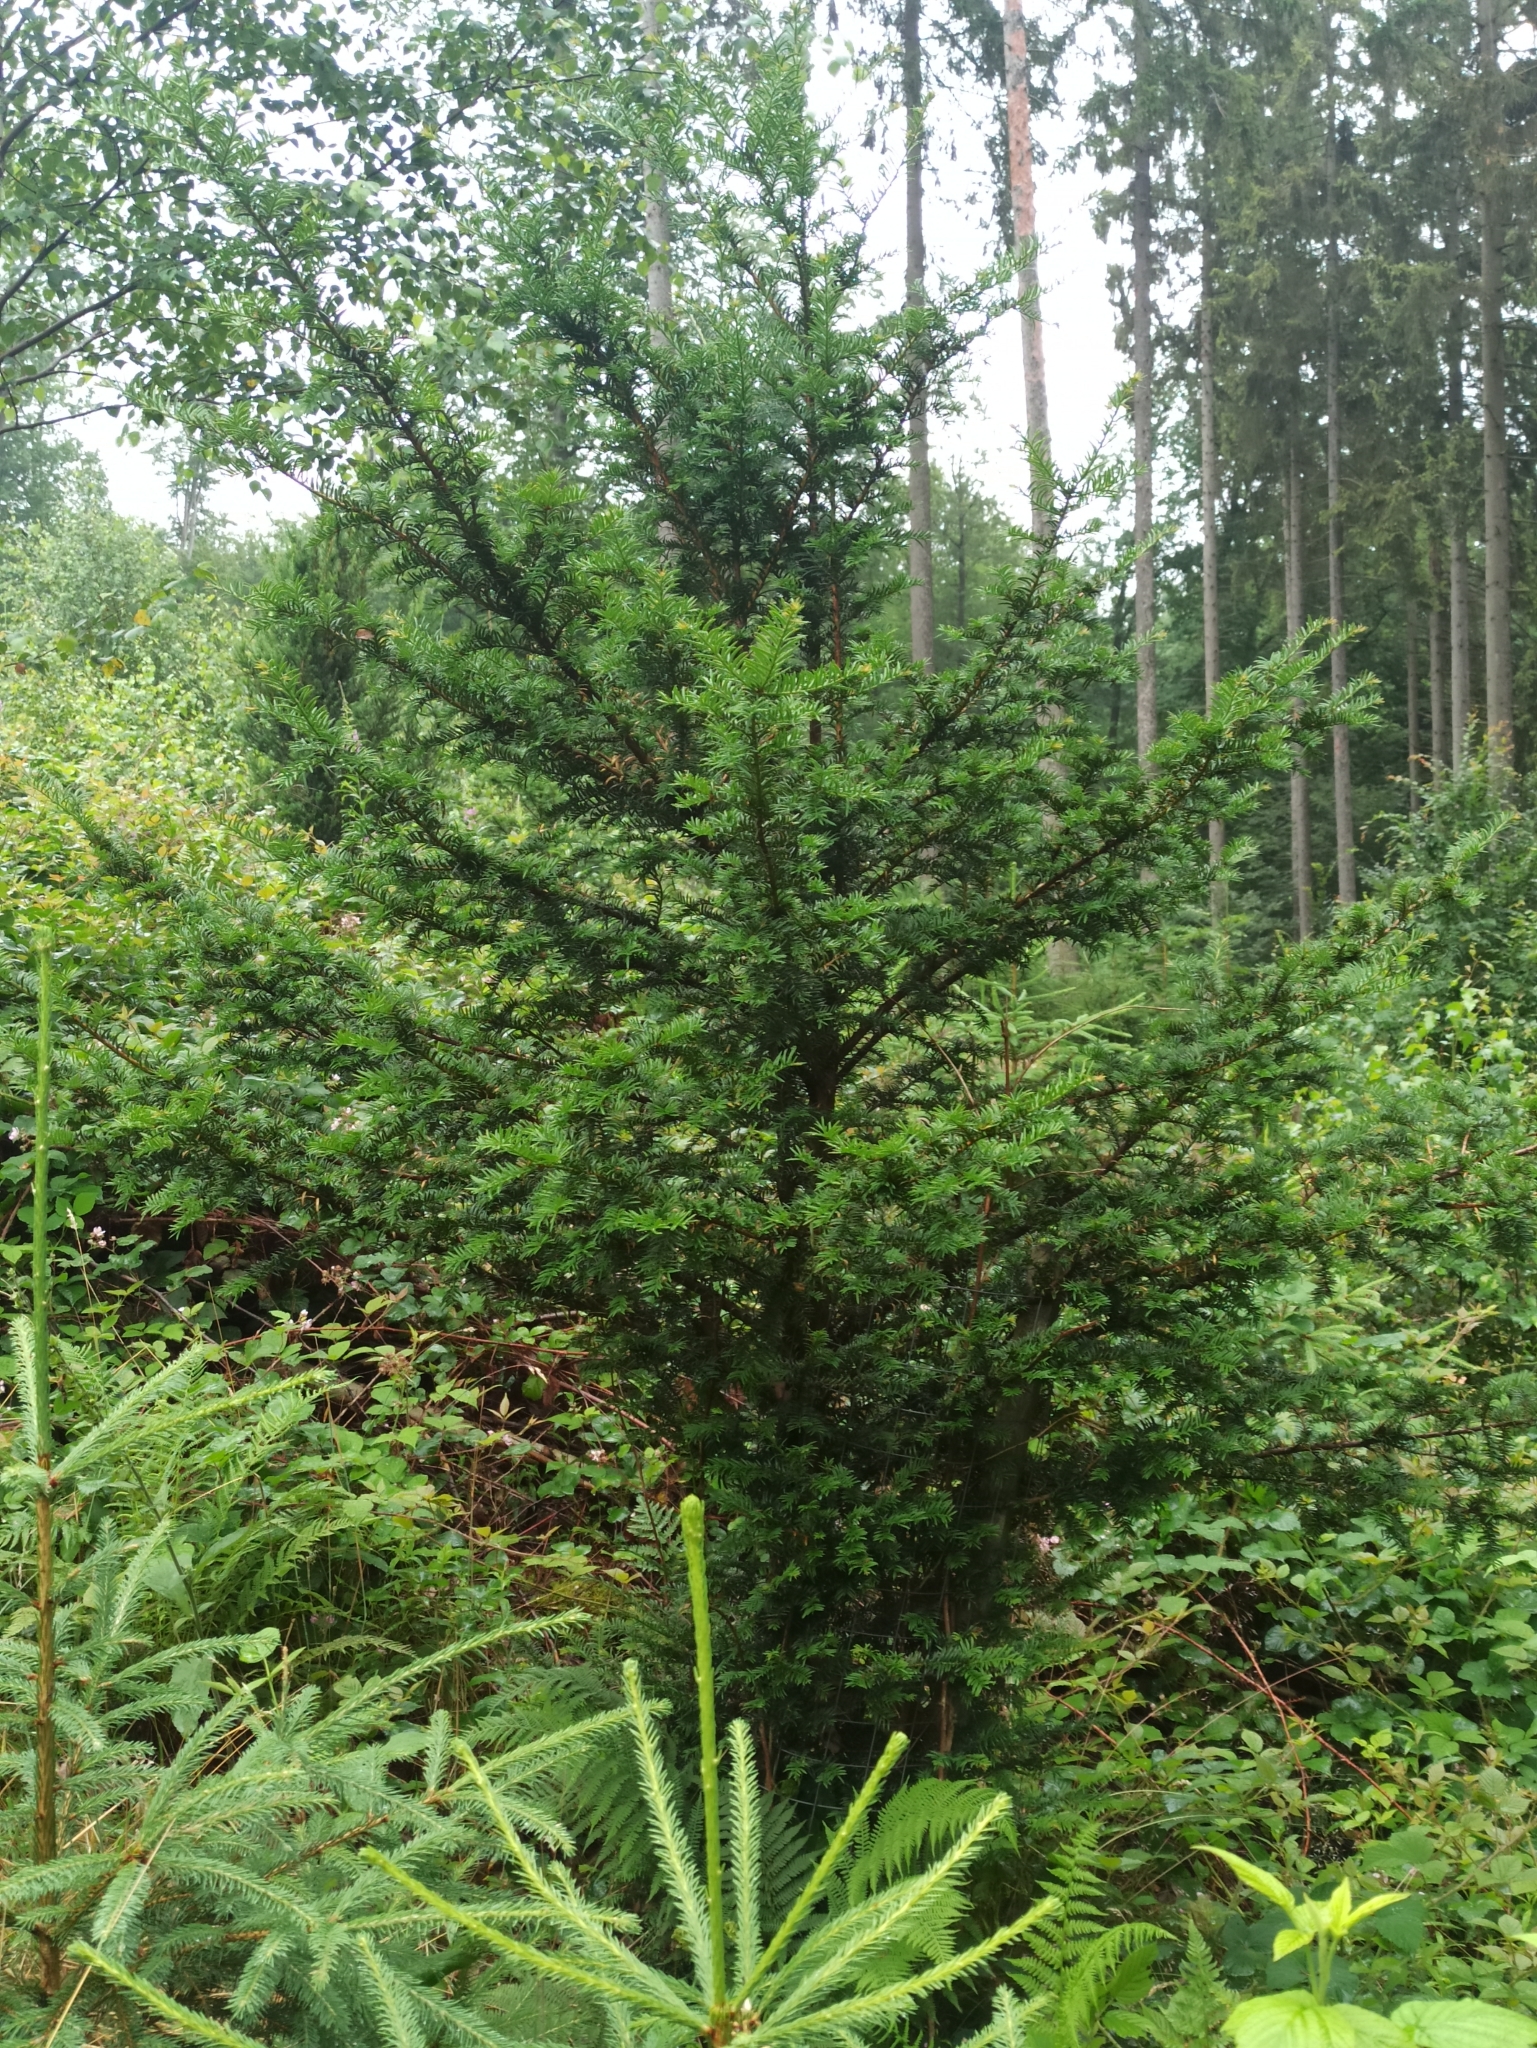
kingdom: Plantae
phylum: Tracheophyta
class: Pinopsida
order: Pinales
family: Taxaceae
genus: Taxus
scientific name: Taxus baccata
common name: Yew
